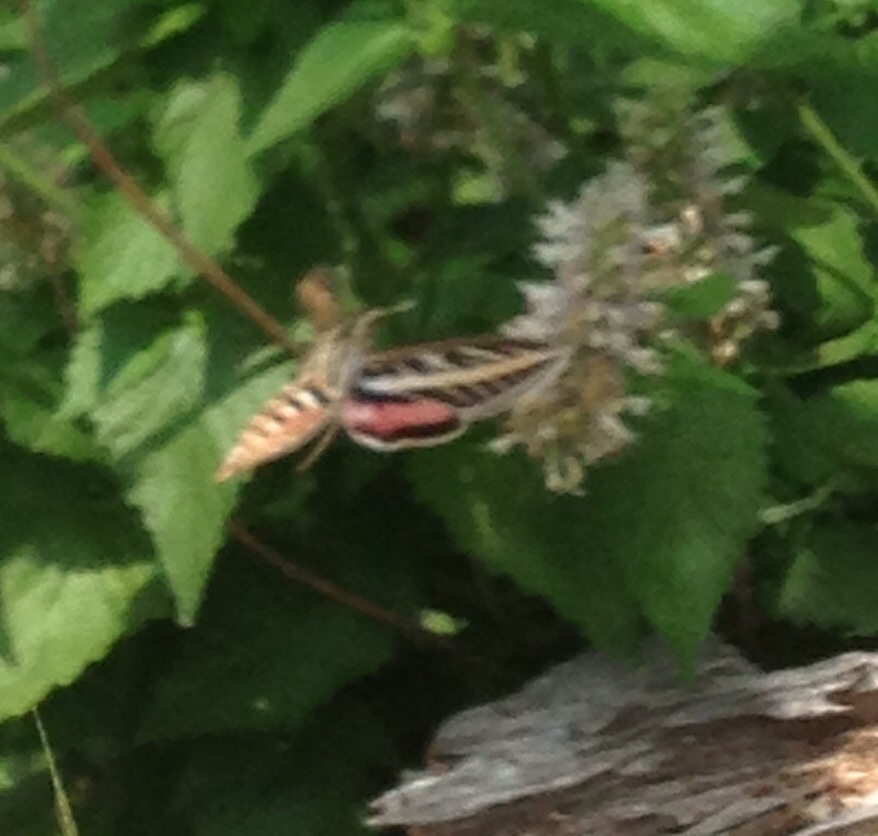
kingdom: Animalia
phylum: Arthropoda
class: Insecta
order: Lepidoptera
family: Sphingidae
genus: Hyles
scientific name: Hyles lineata
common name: White-lined sphinx
